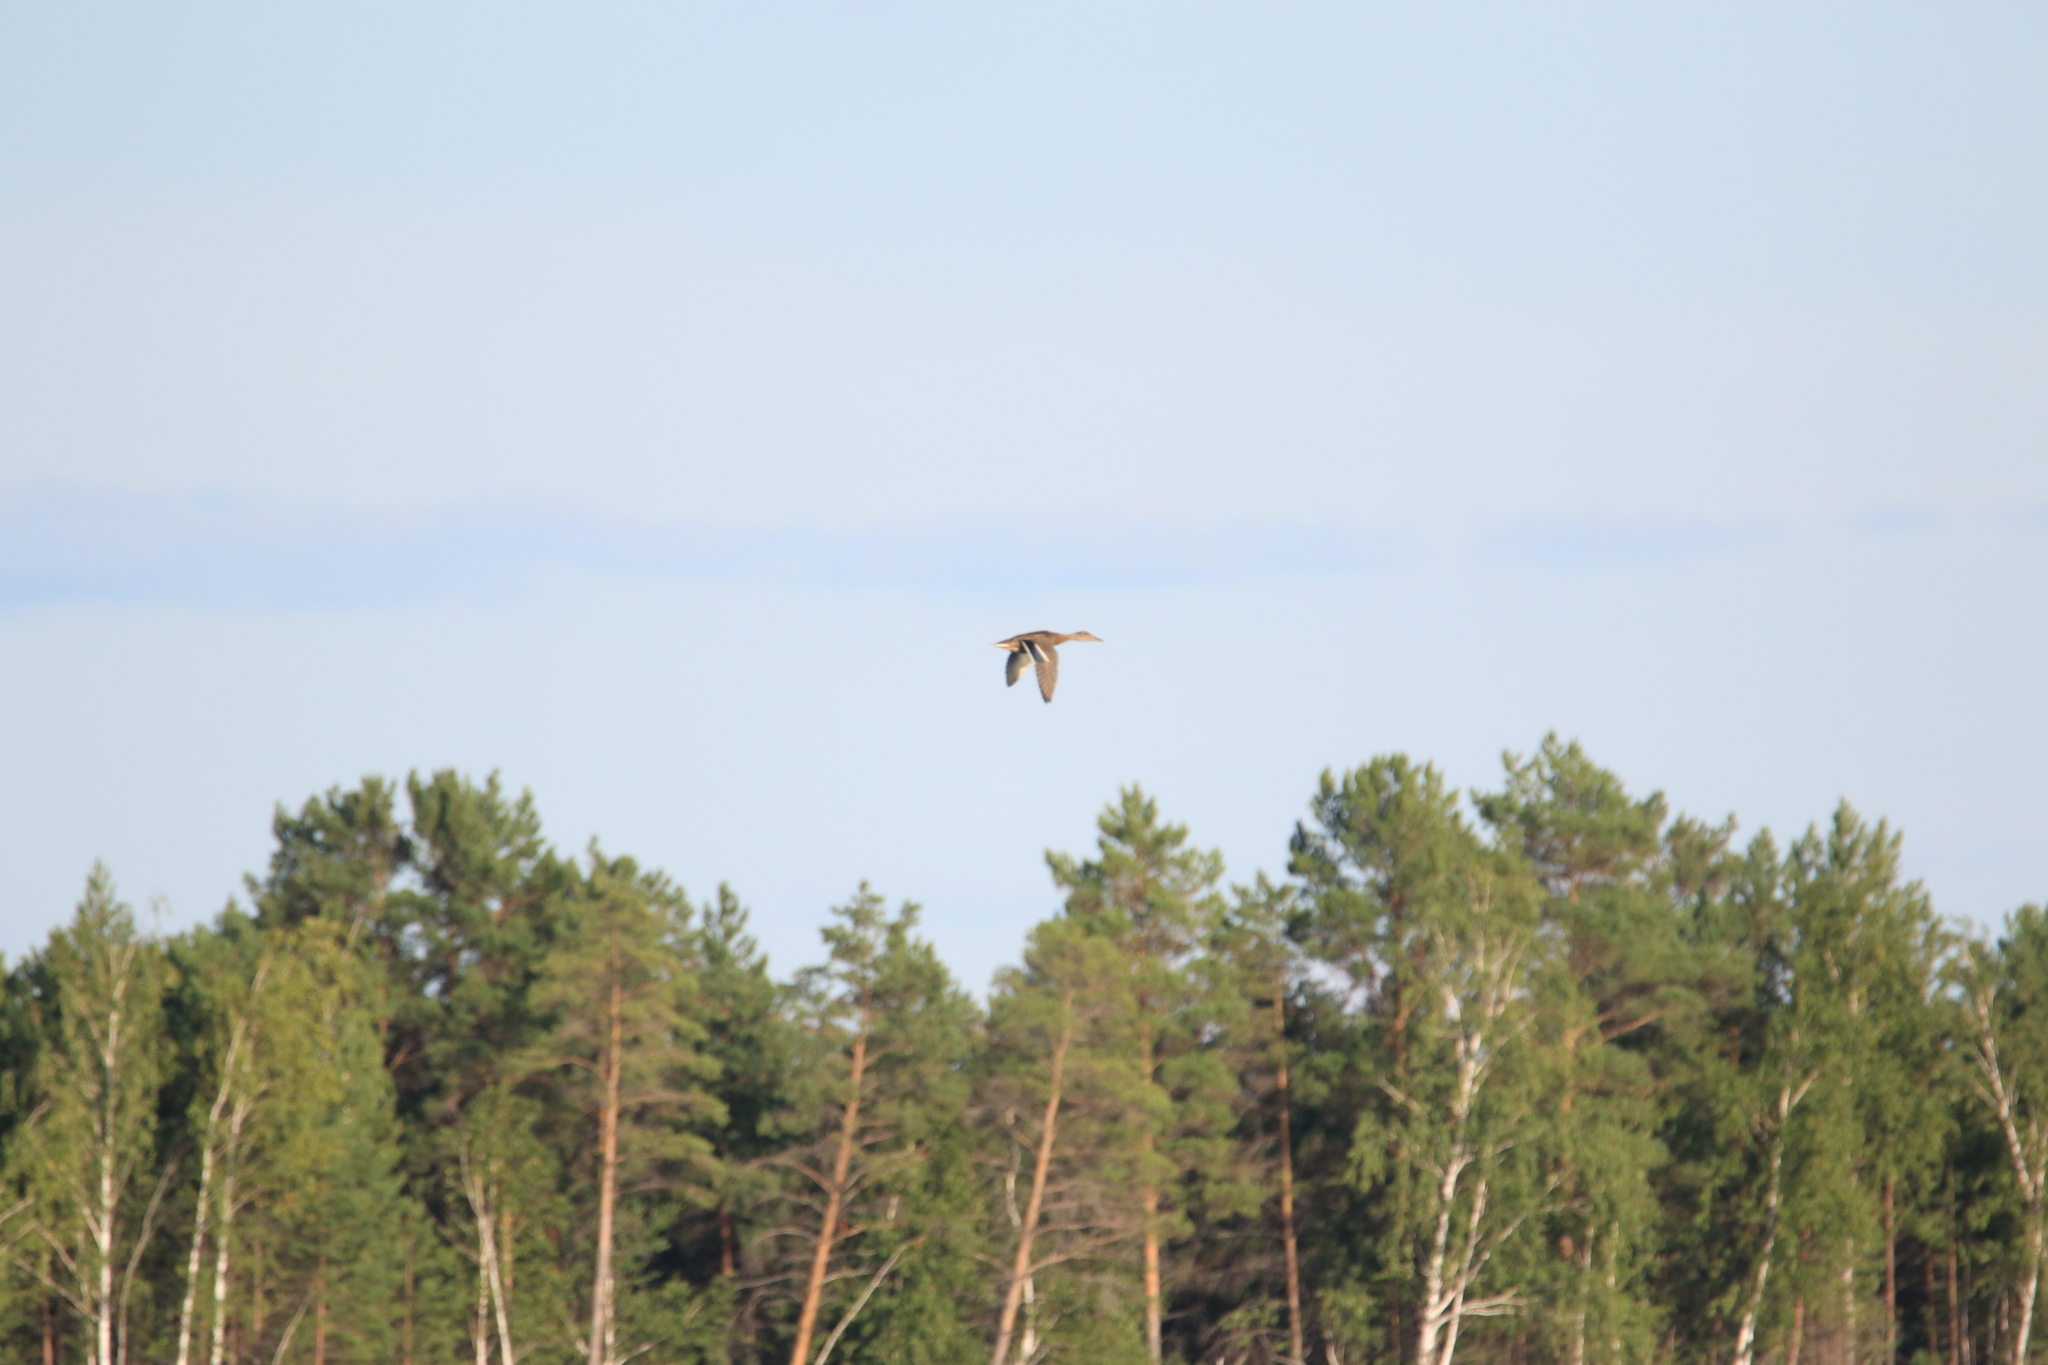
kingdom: Animalia
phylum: Chordata
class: Aves
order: Anseriformes
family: Anatidae
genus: Anas
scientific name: Anas platyrhynchos
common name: Mallard
